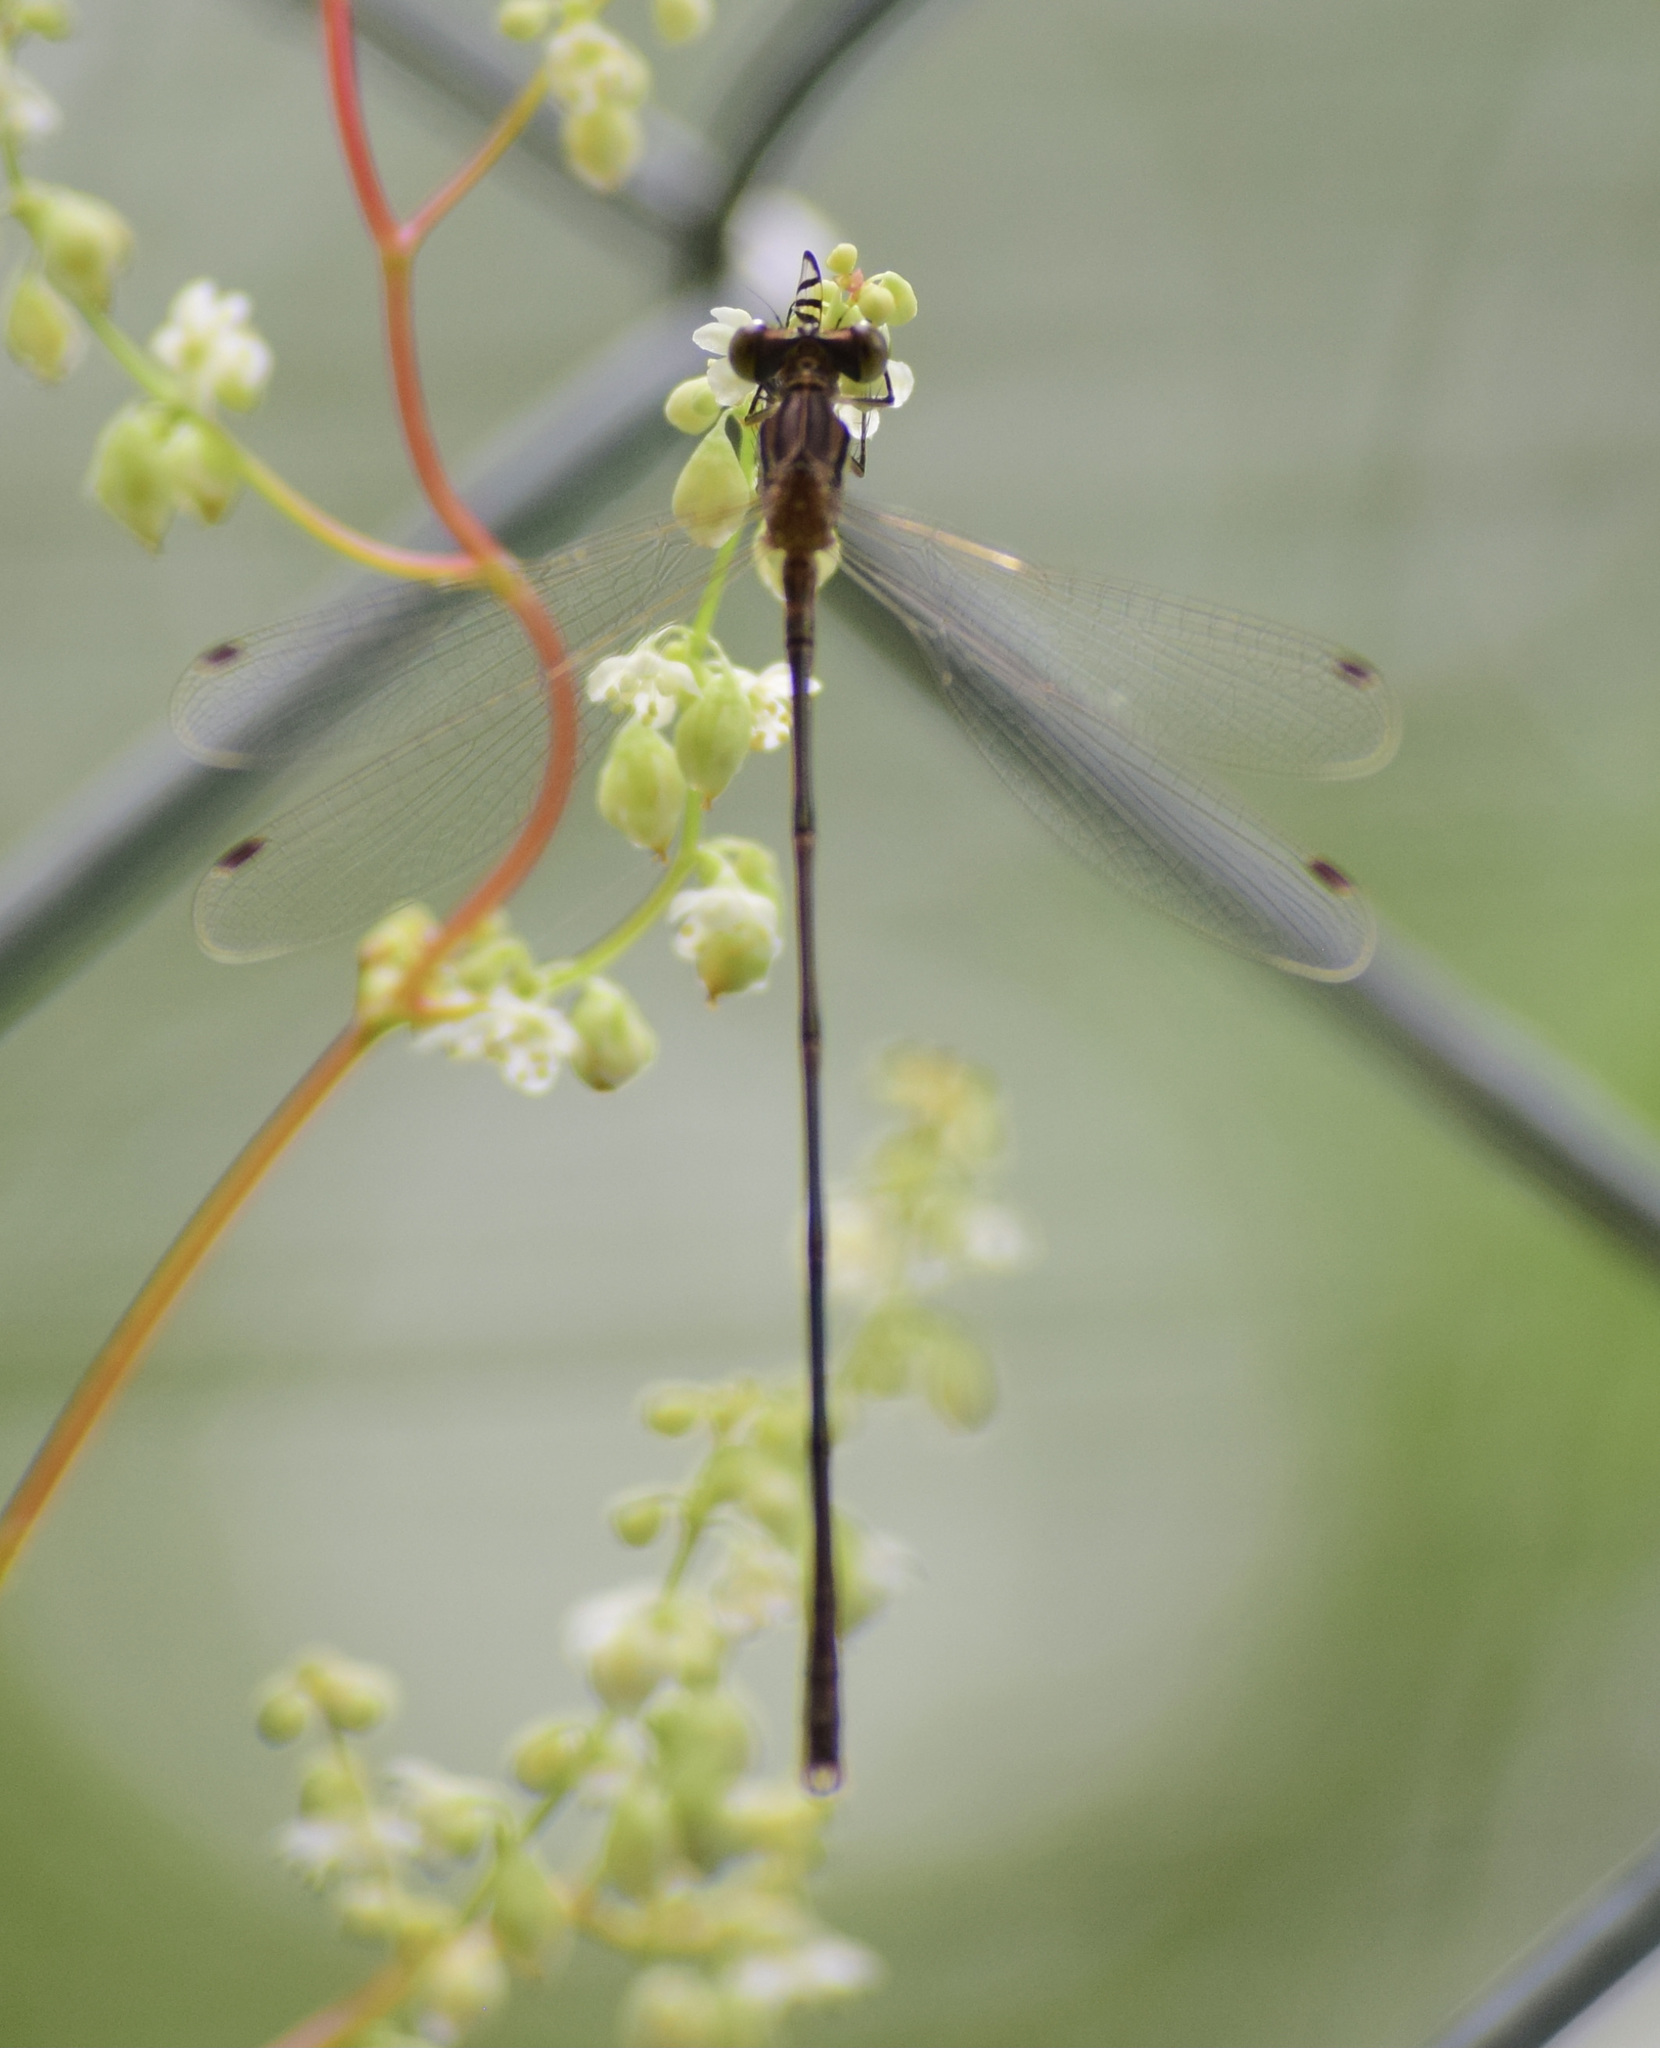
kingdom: Animalia
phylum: Arthropoda
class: Insecta
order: Odonata
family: Lestidae
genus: Lestes
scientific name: Lestes rectangularis
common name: Slender spreadwing
